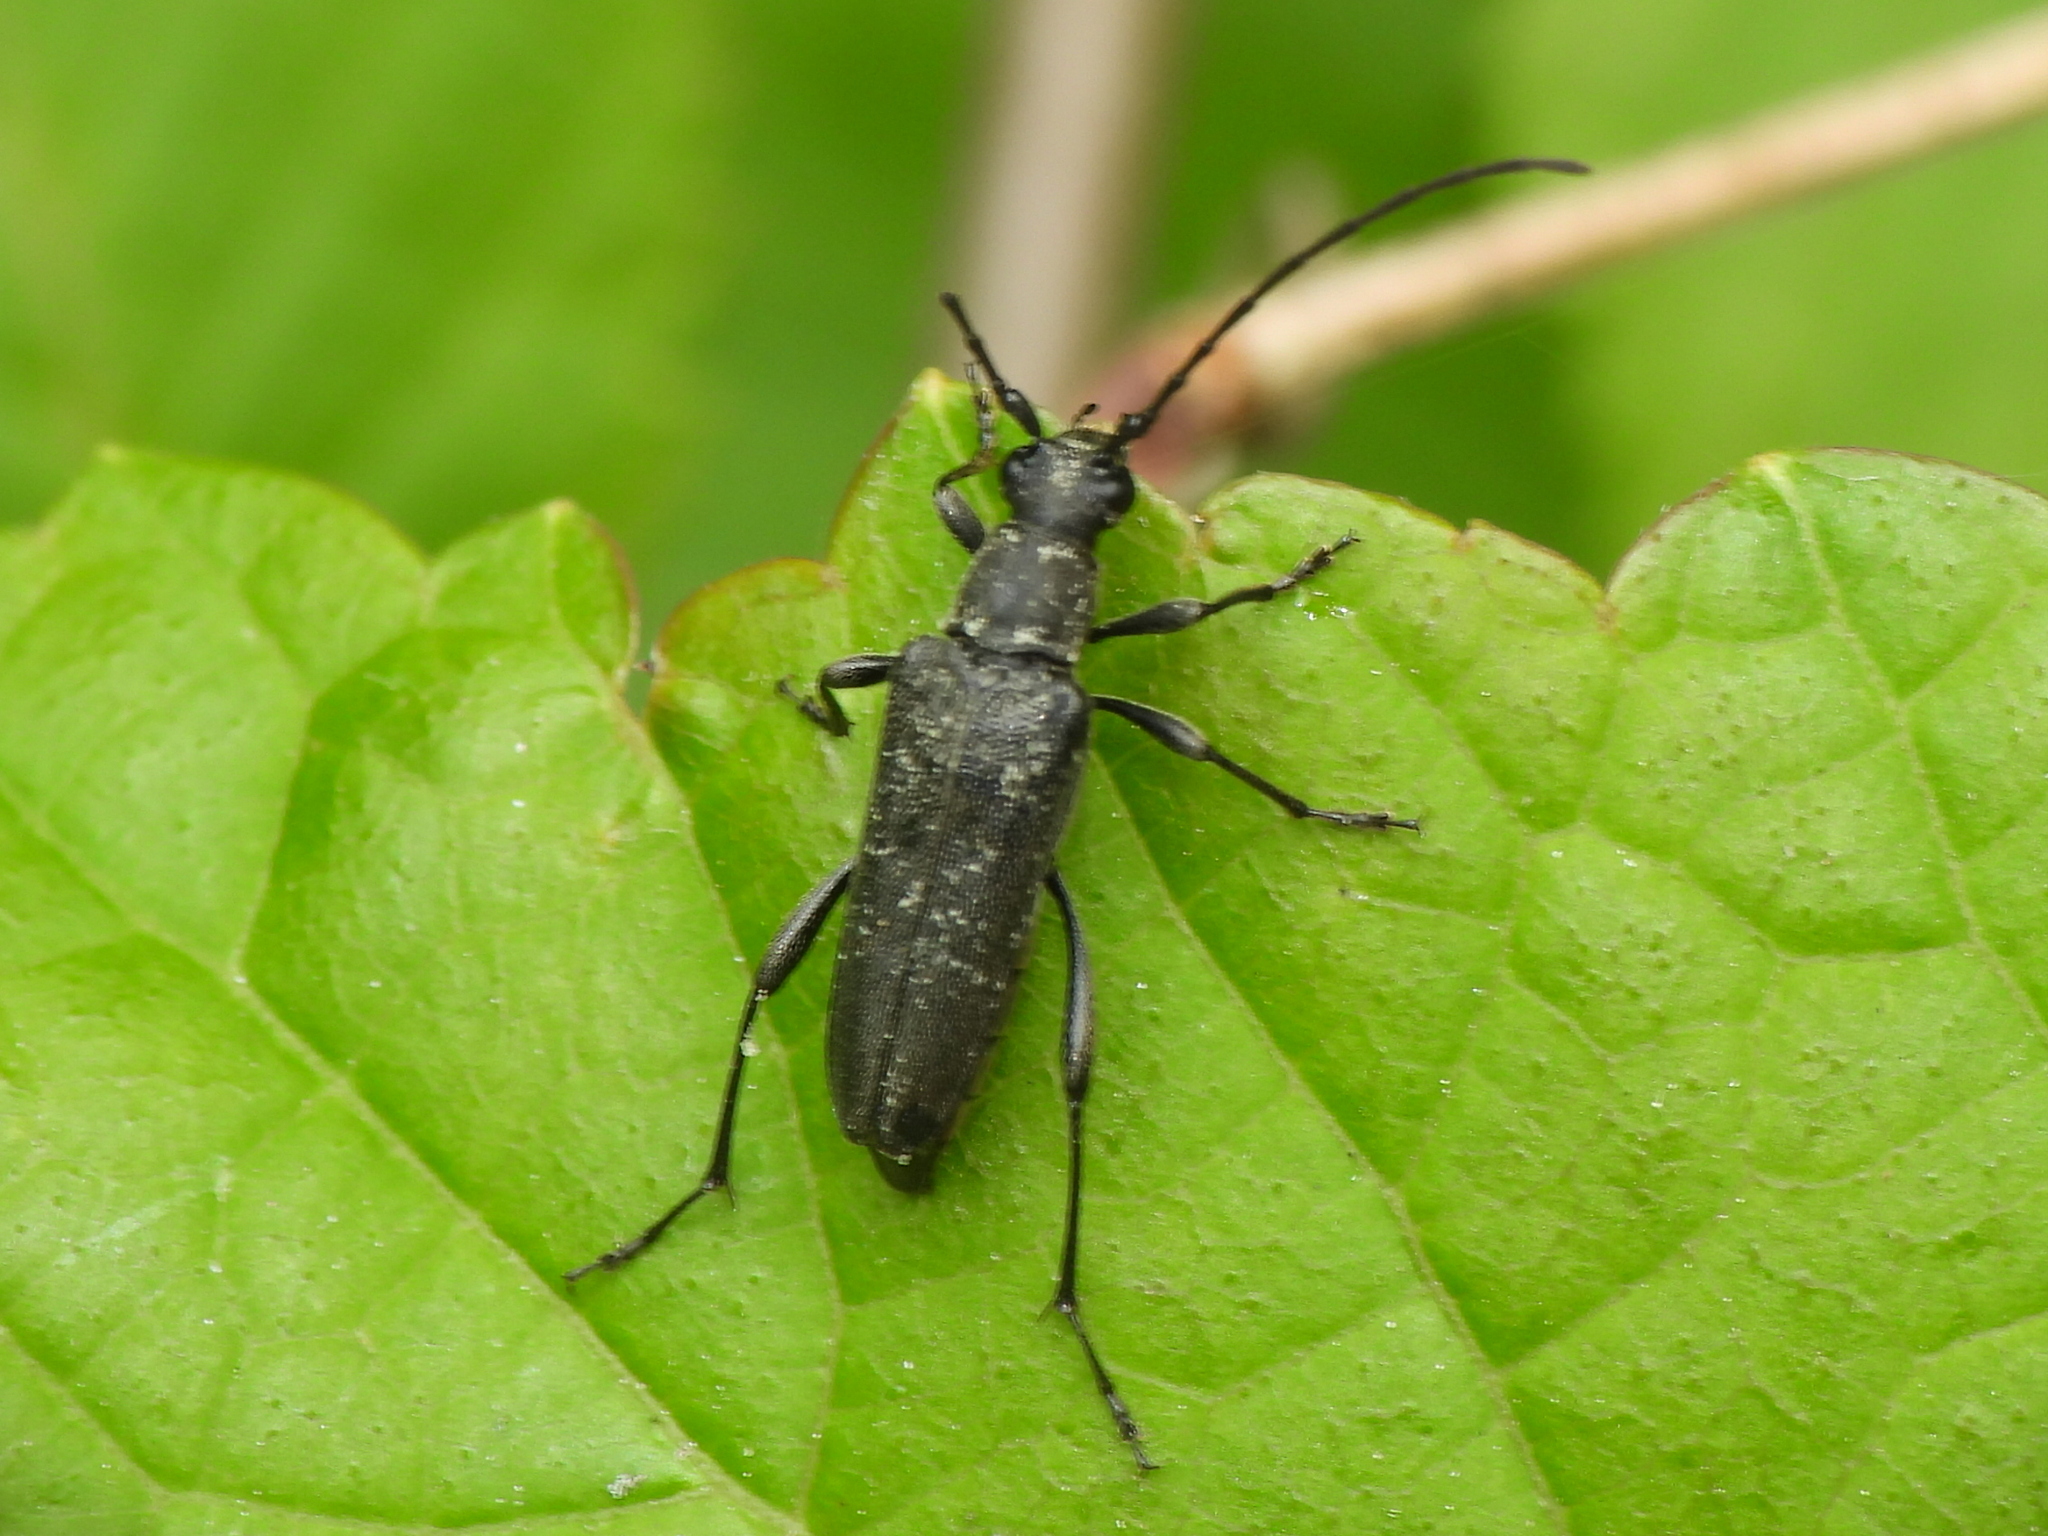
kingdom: Animalia
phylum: Arthropoda
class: Insecta
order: Coleoptera
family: Cerambycidae
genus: Anoplodera
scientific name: Anoplodera pubera
